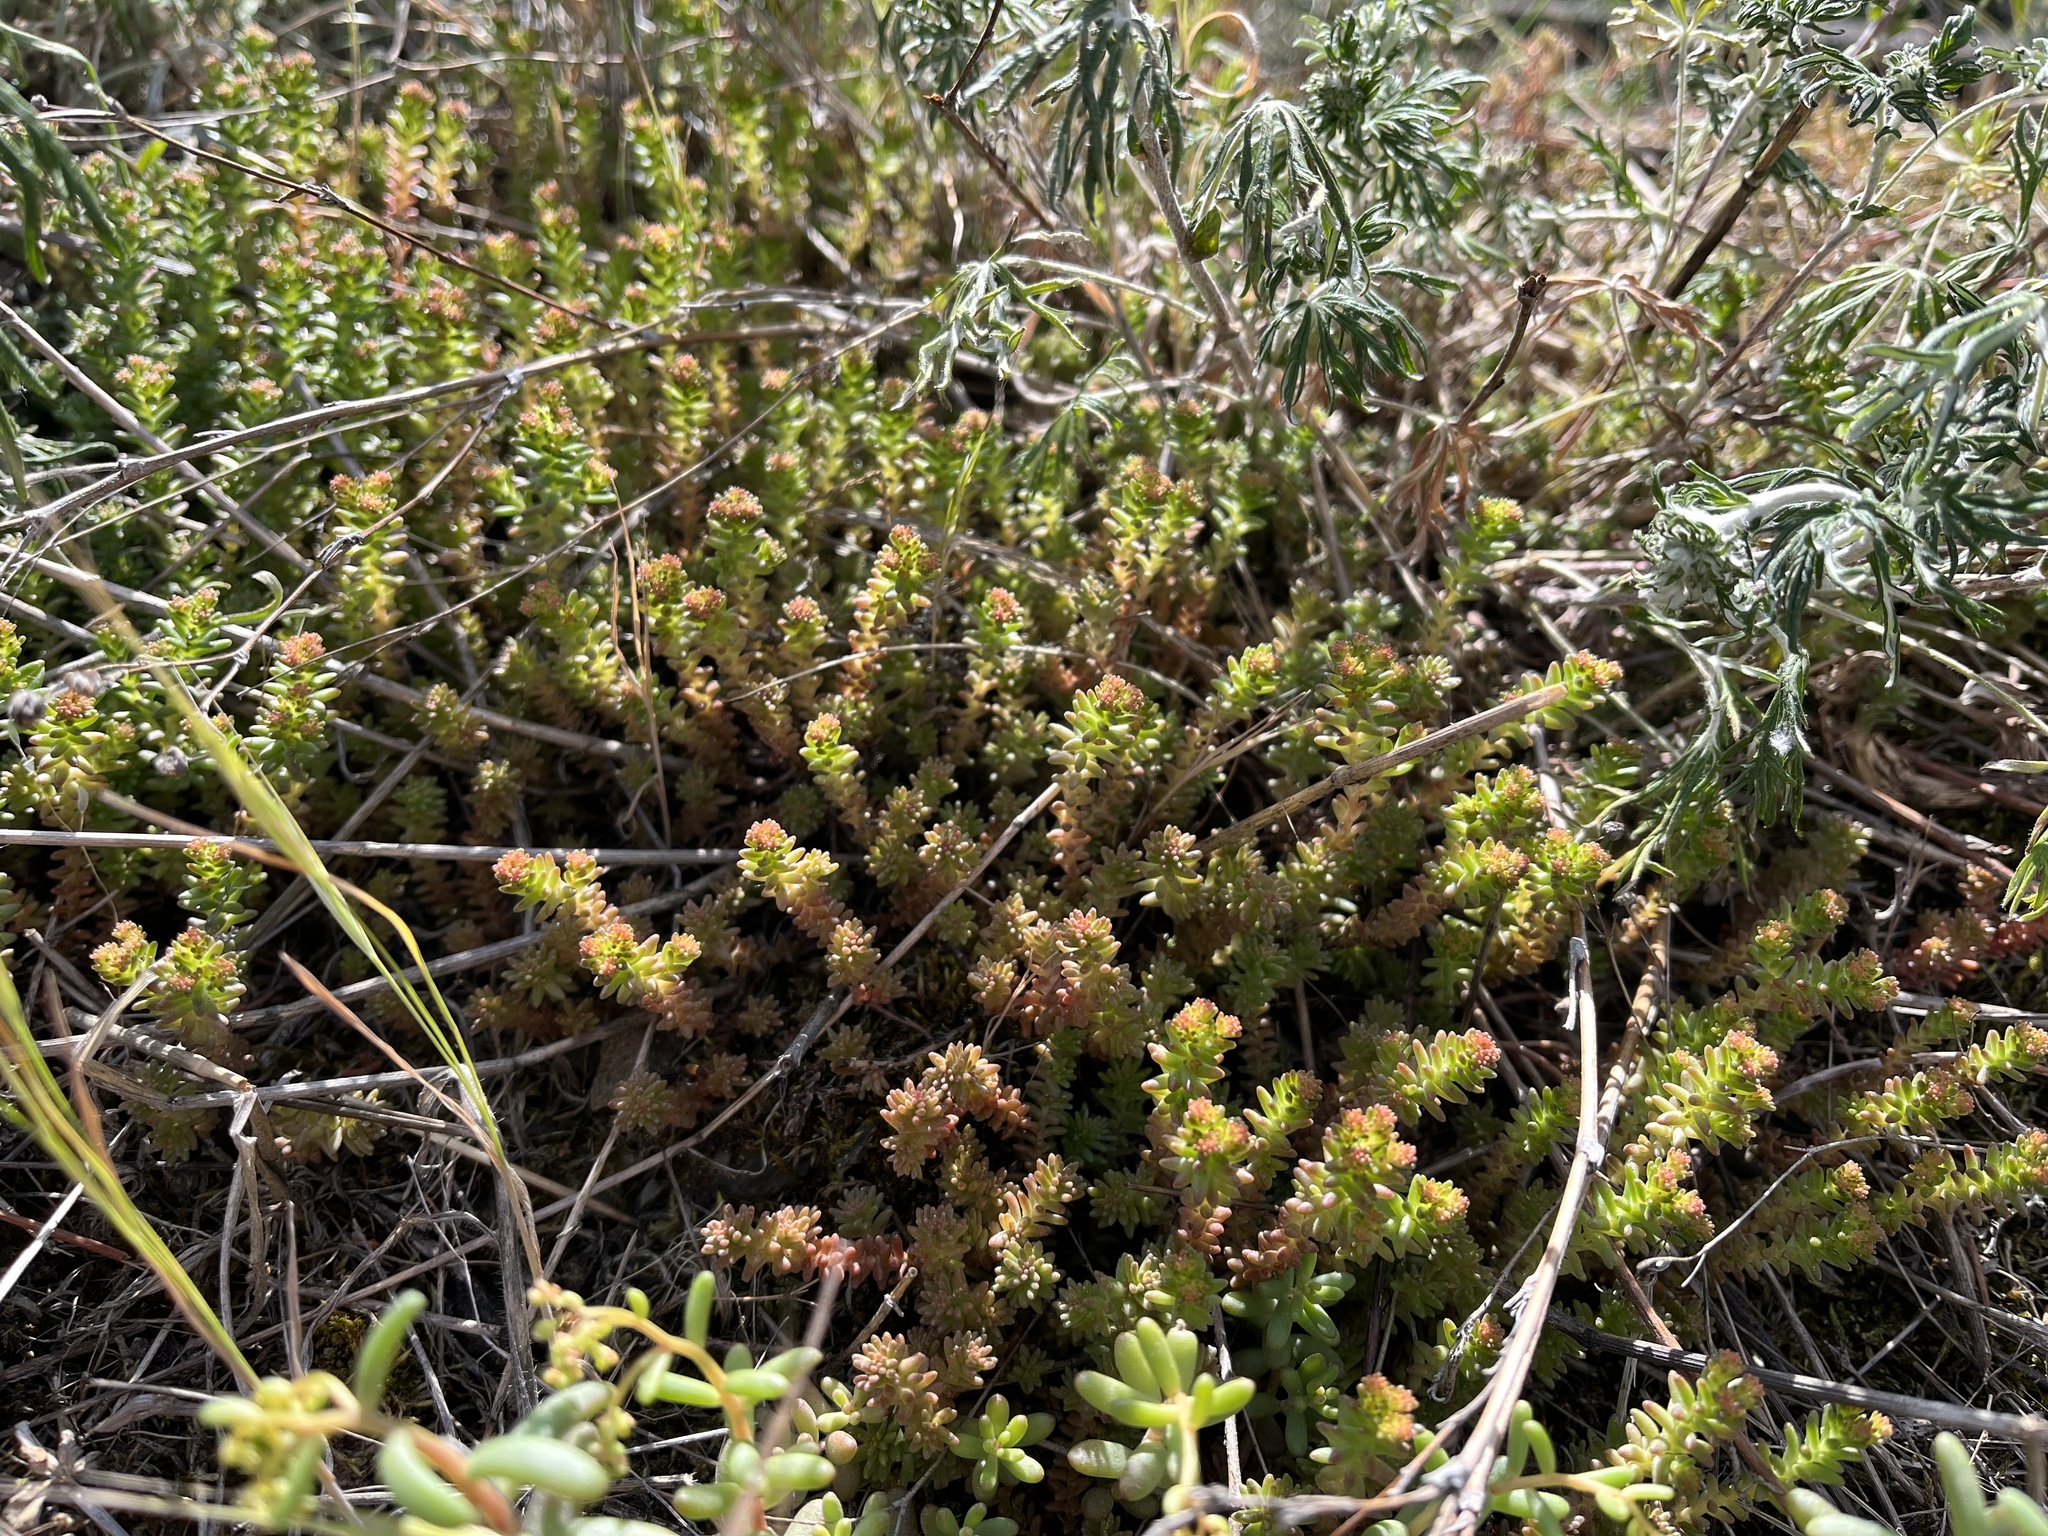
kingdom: Plantae
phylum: Tracheophyta
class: Magnoliopsida
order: Saxifragales
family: Crassulaceae
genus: Sedum
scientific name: Sedum sexangulare
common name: Tasteless stonecrop
